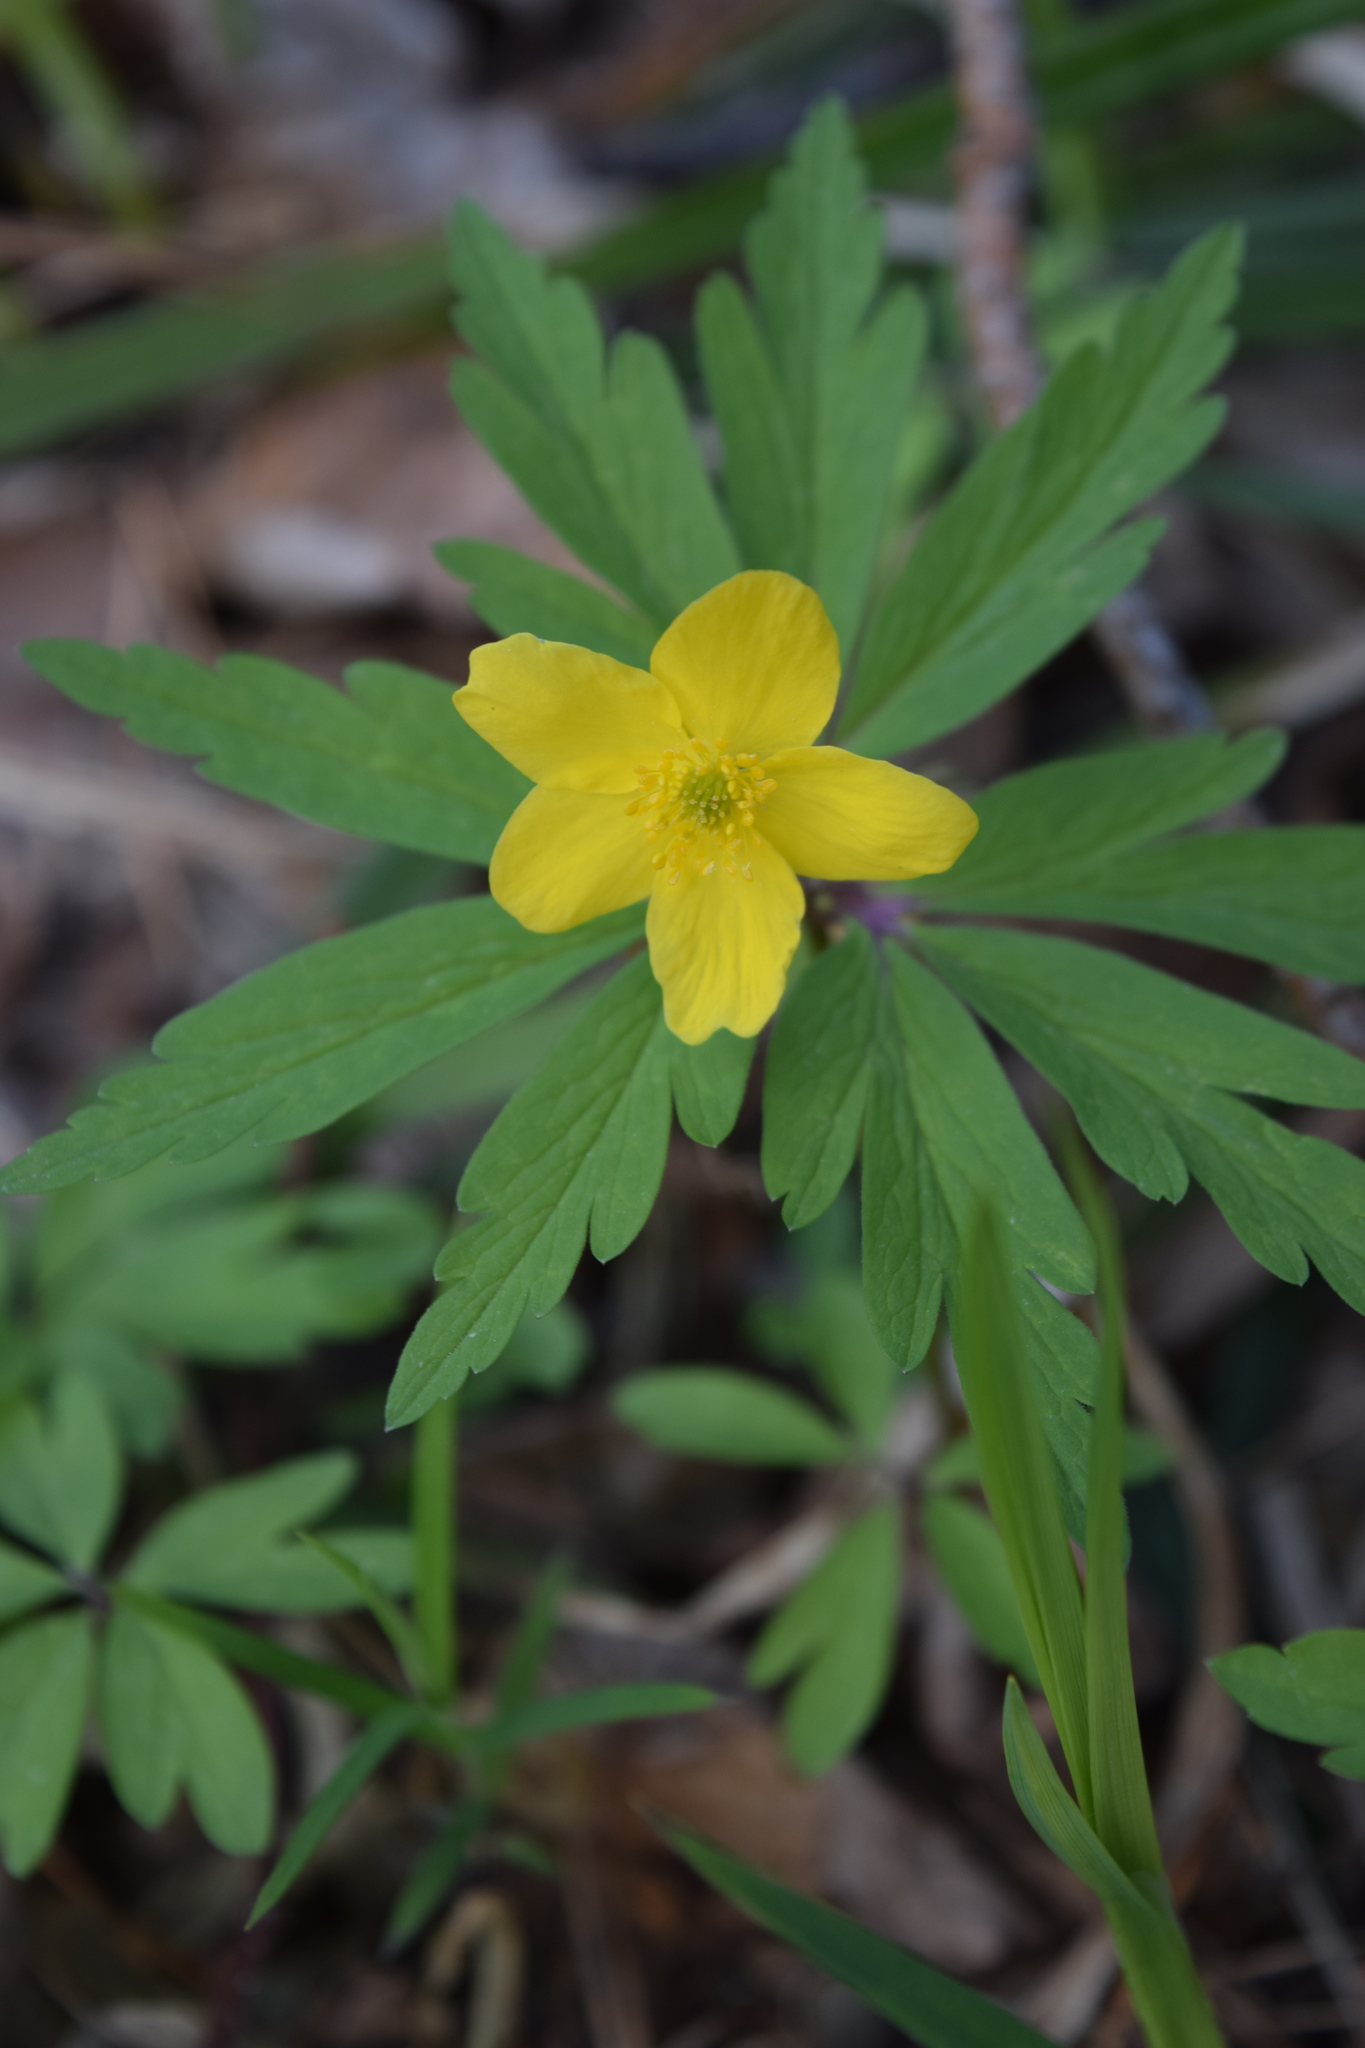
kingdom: Plantae
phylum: Tracheophyta
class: Magnoliopsida
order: Ranunculales
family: Ranunculaceae
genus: Anemone
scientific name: Anemone ranunculoides
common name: Yellow anemone
